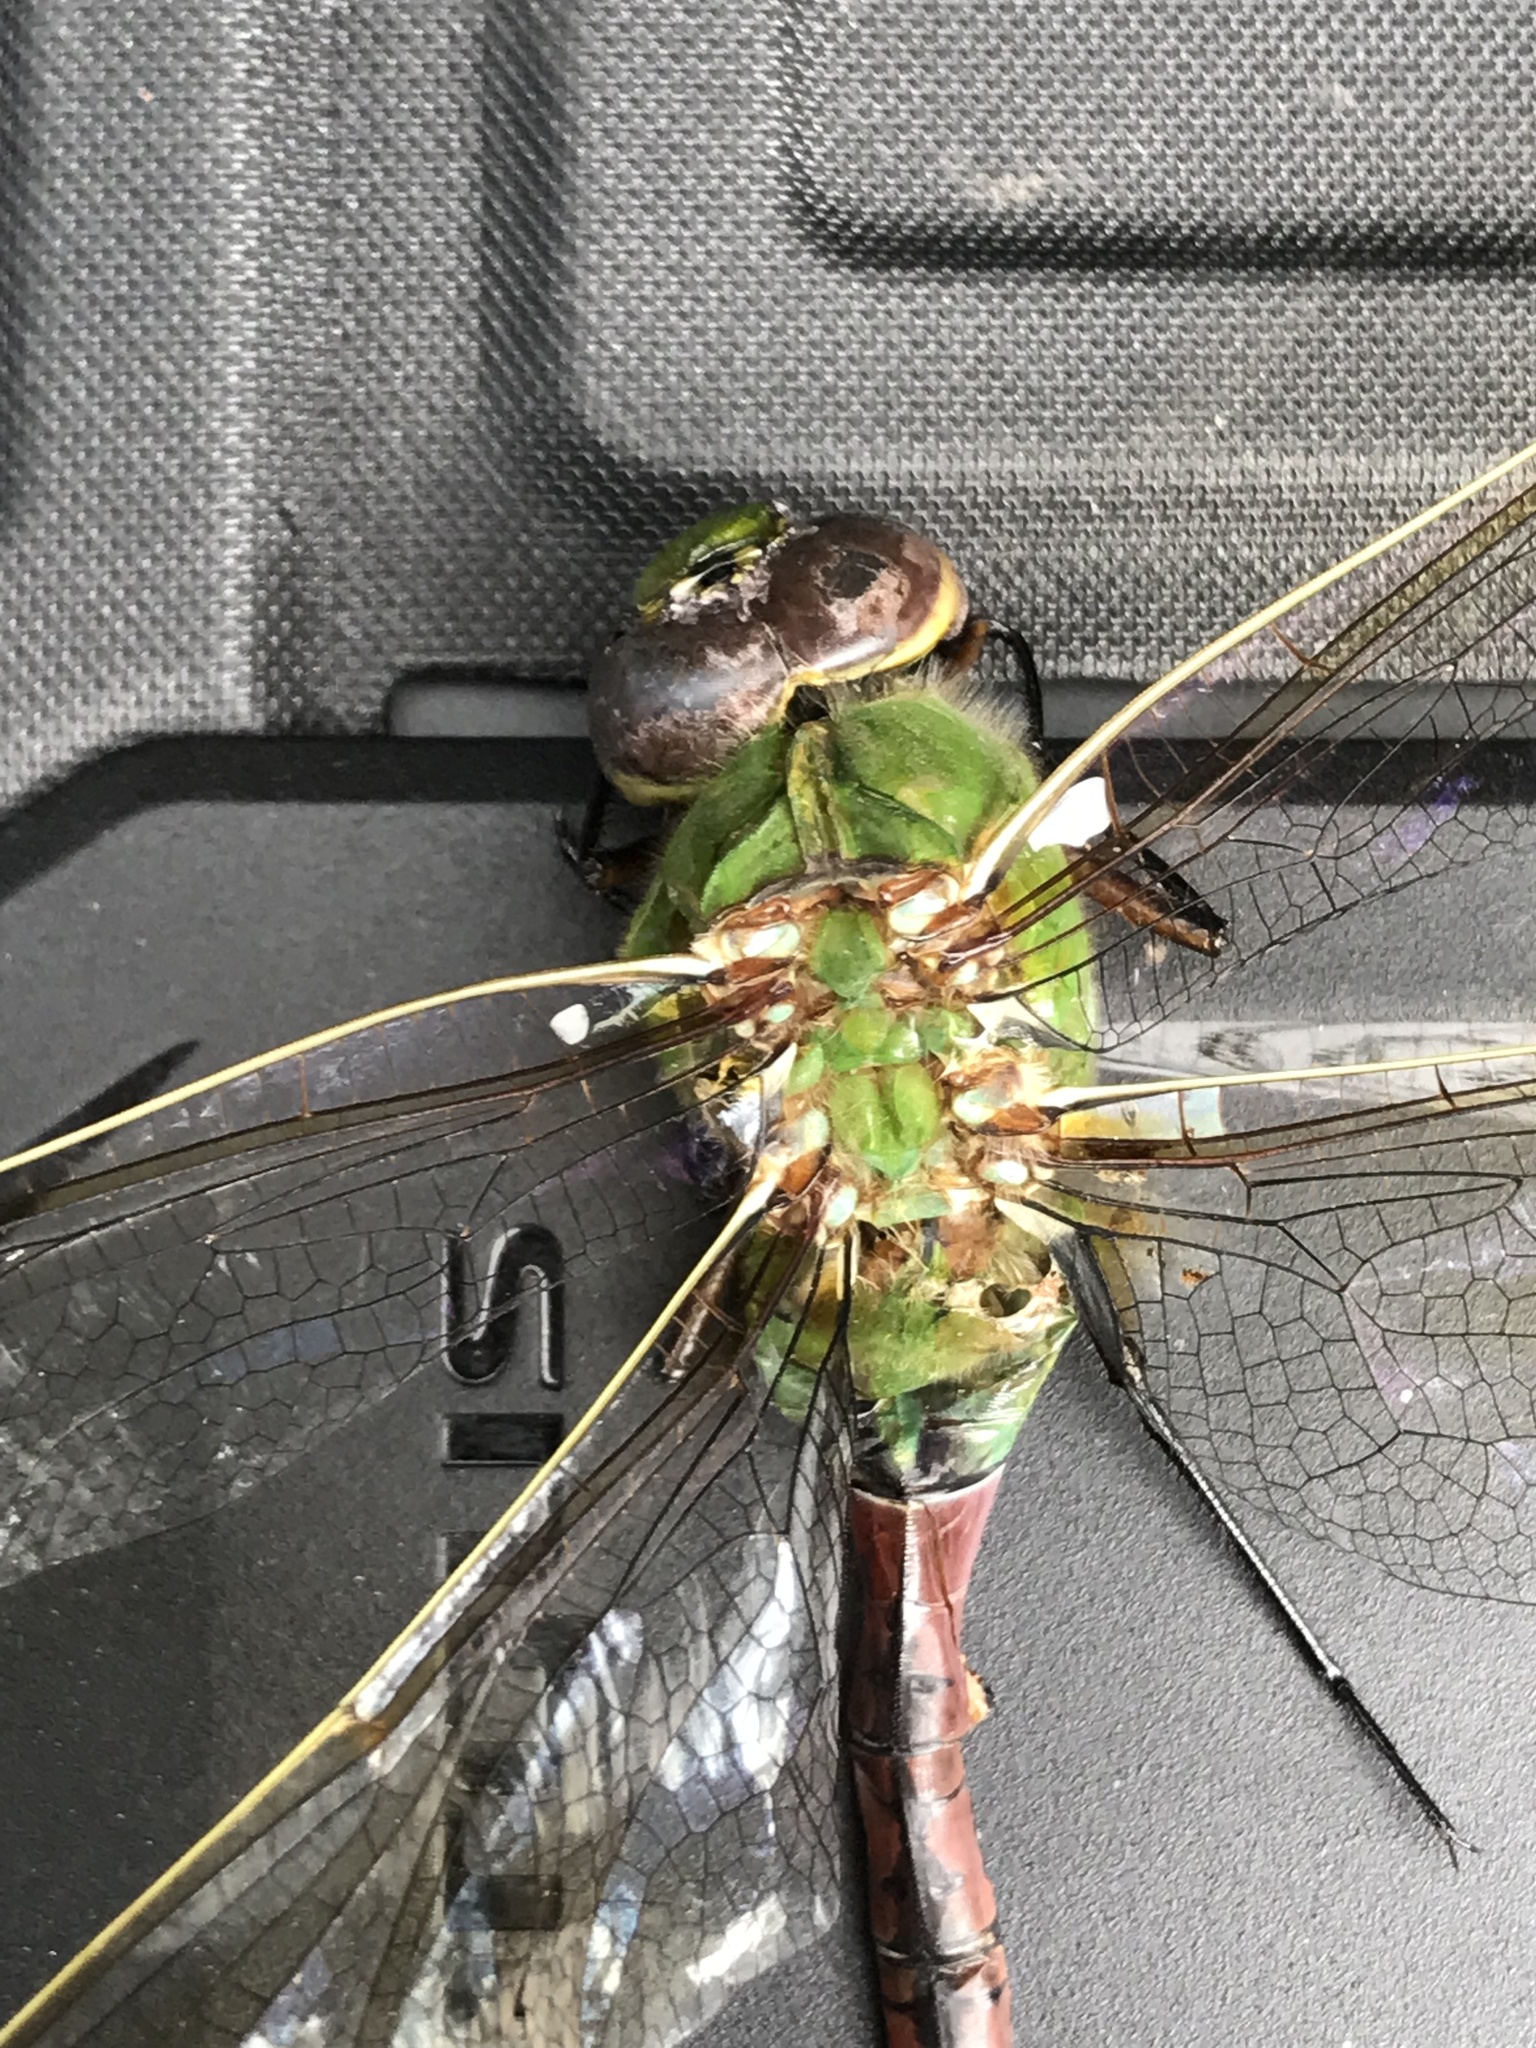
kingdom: Animalia
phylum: Arthropoda
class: Insecta
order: Odonata
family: Aeshnidae
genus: Anax
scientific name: Anax junius
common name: Common green darner
